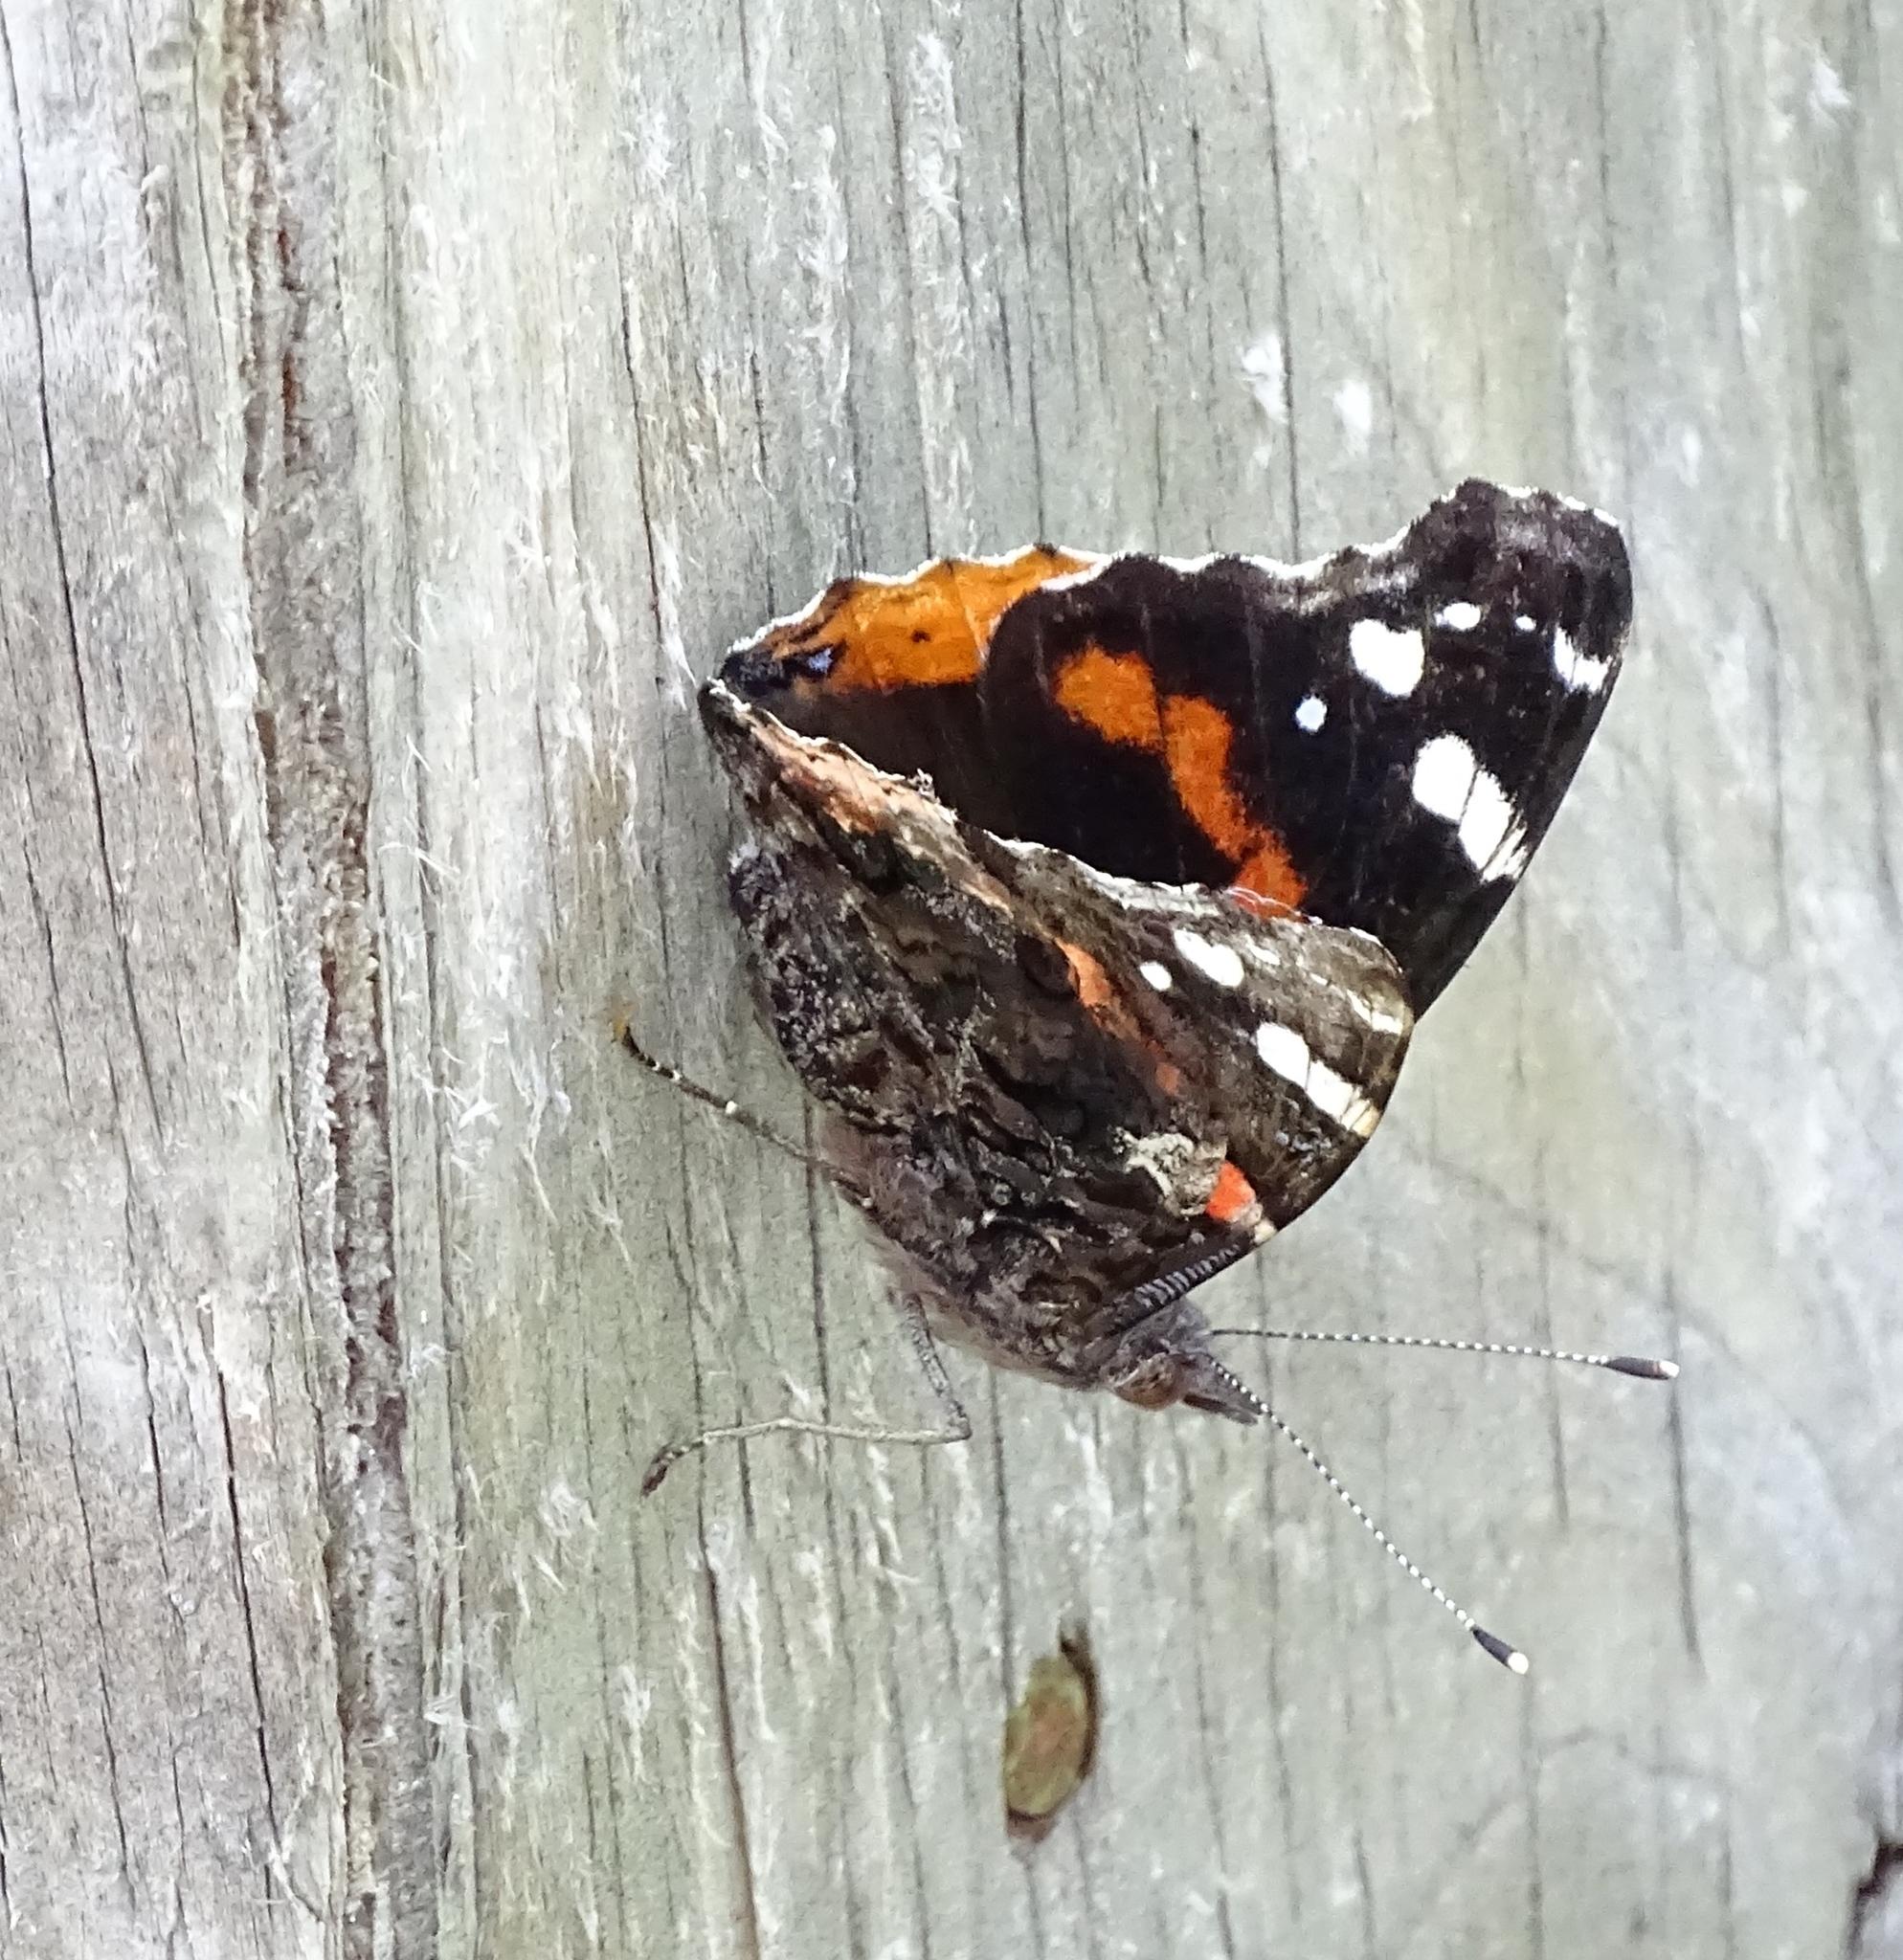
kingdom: Animalia
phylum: Arthropoda
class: Insecta
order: Lepidoptera
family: Nymphalidae
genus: Vanessa
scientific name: Vanessa atalanta
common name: Red admiral
